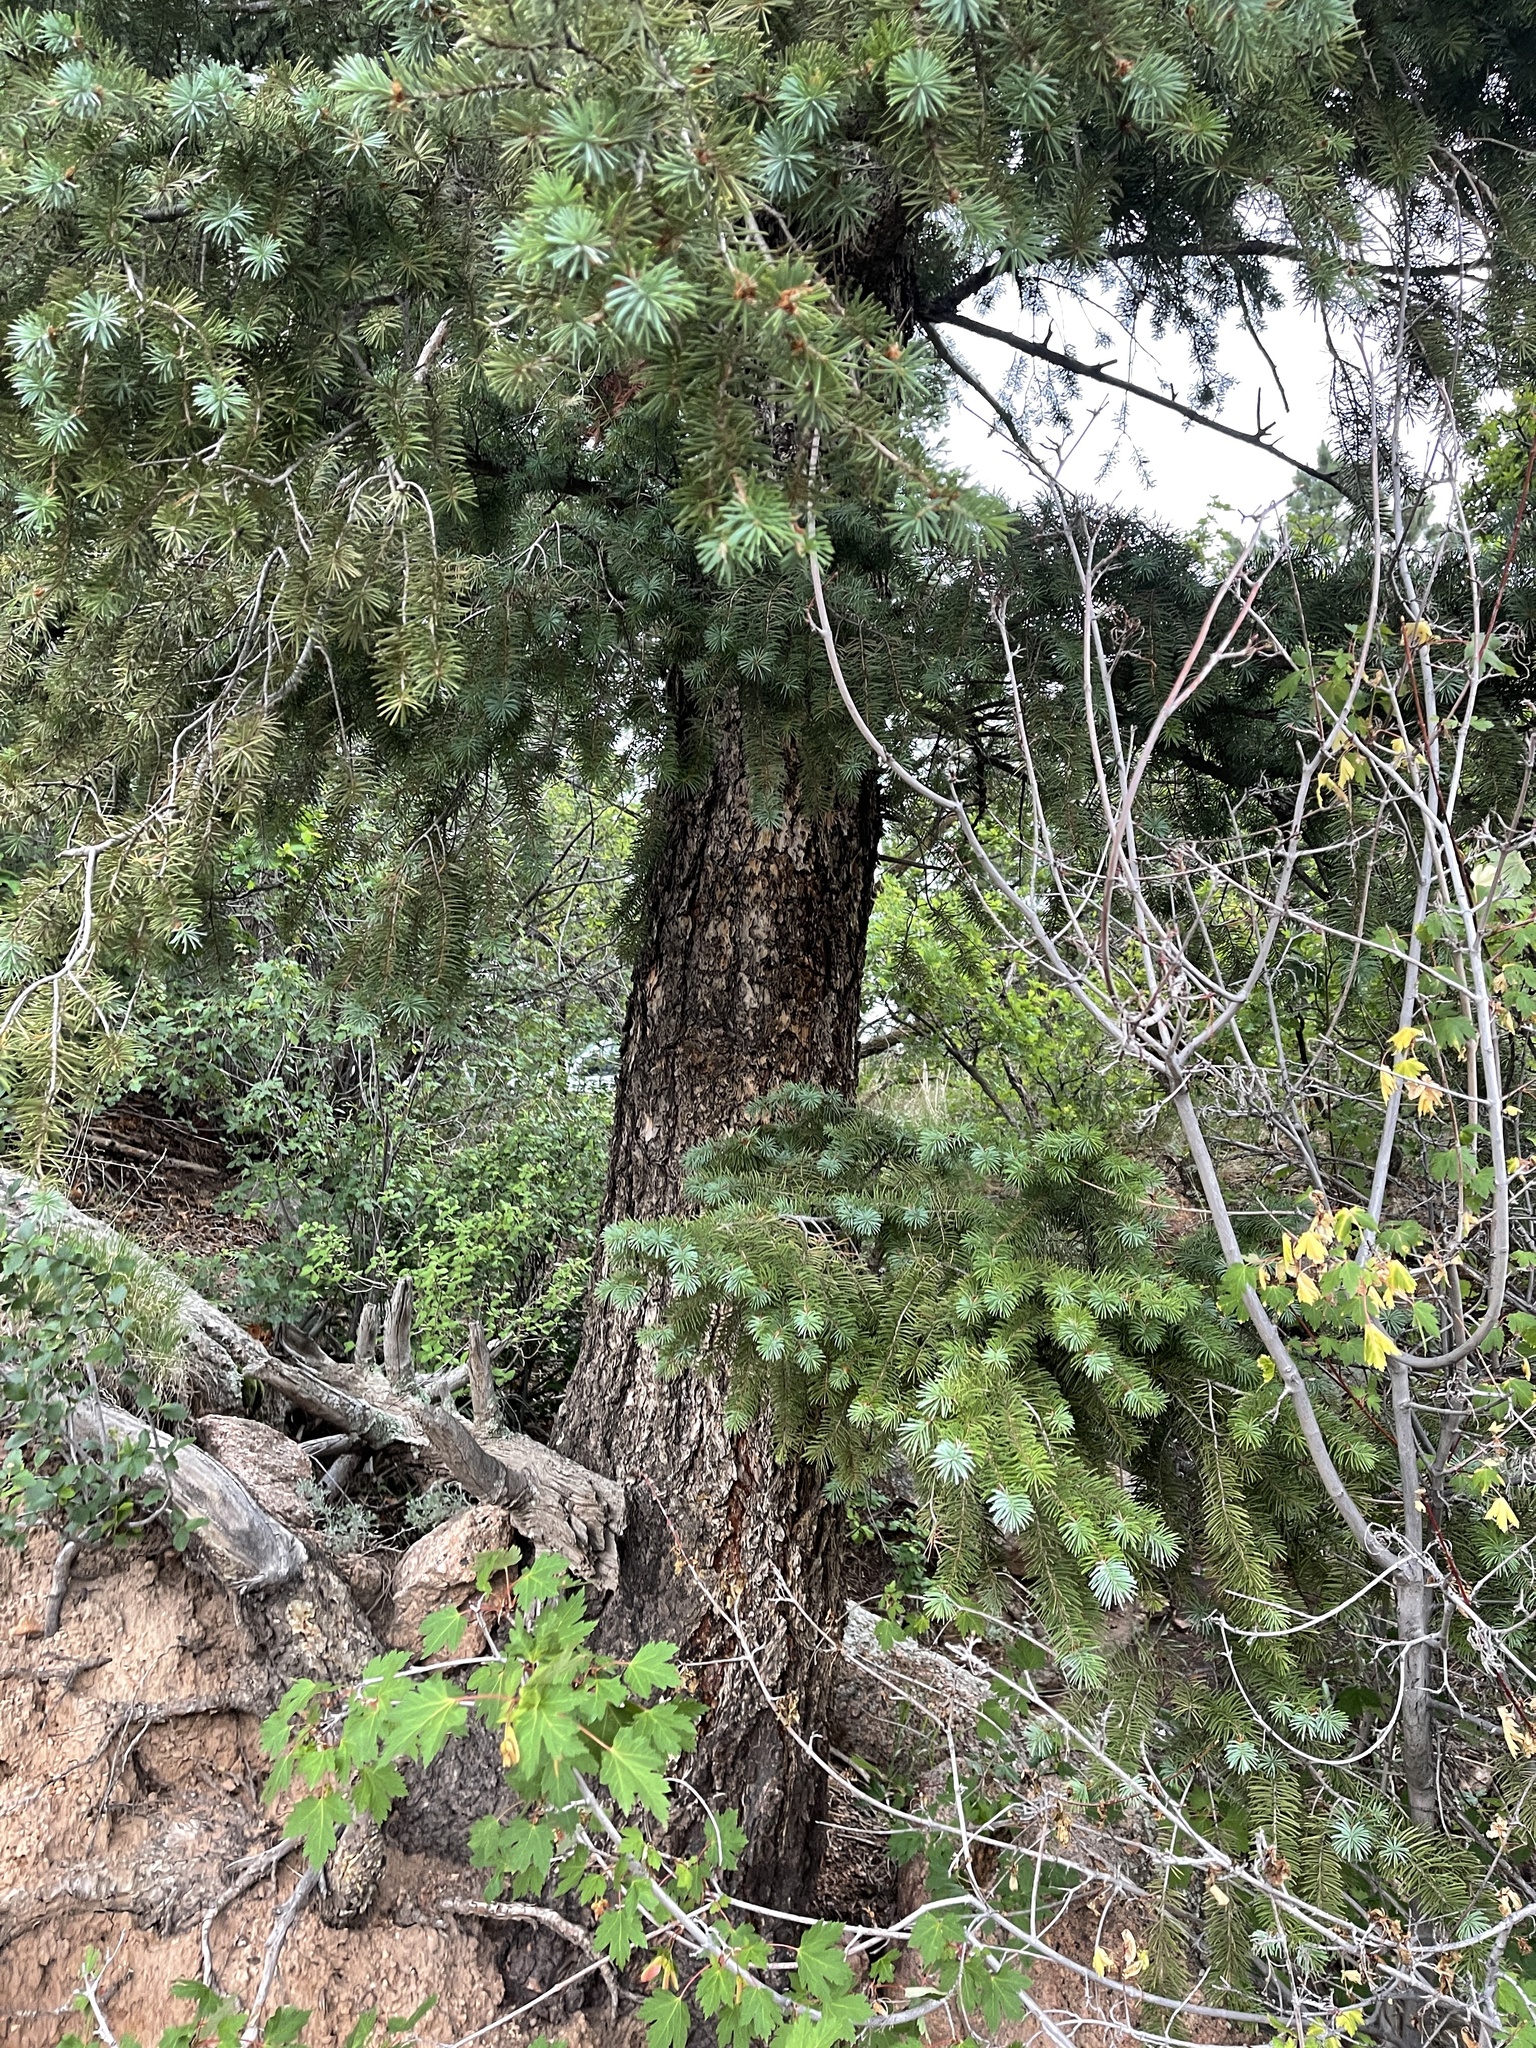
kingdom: Plantae
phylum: Tracheophyta
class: Pinopsida
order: Pinales
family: Pinaceae
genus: Pseudotsuga
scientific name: Pseudotsuga menziesii
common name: Douglas fir
